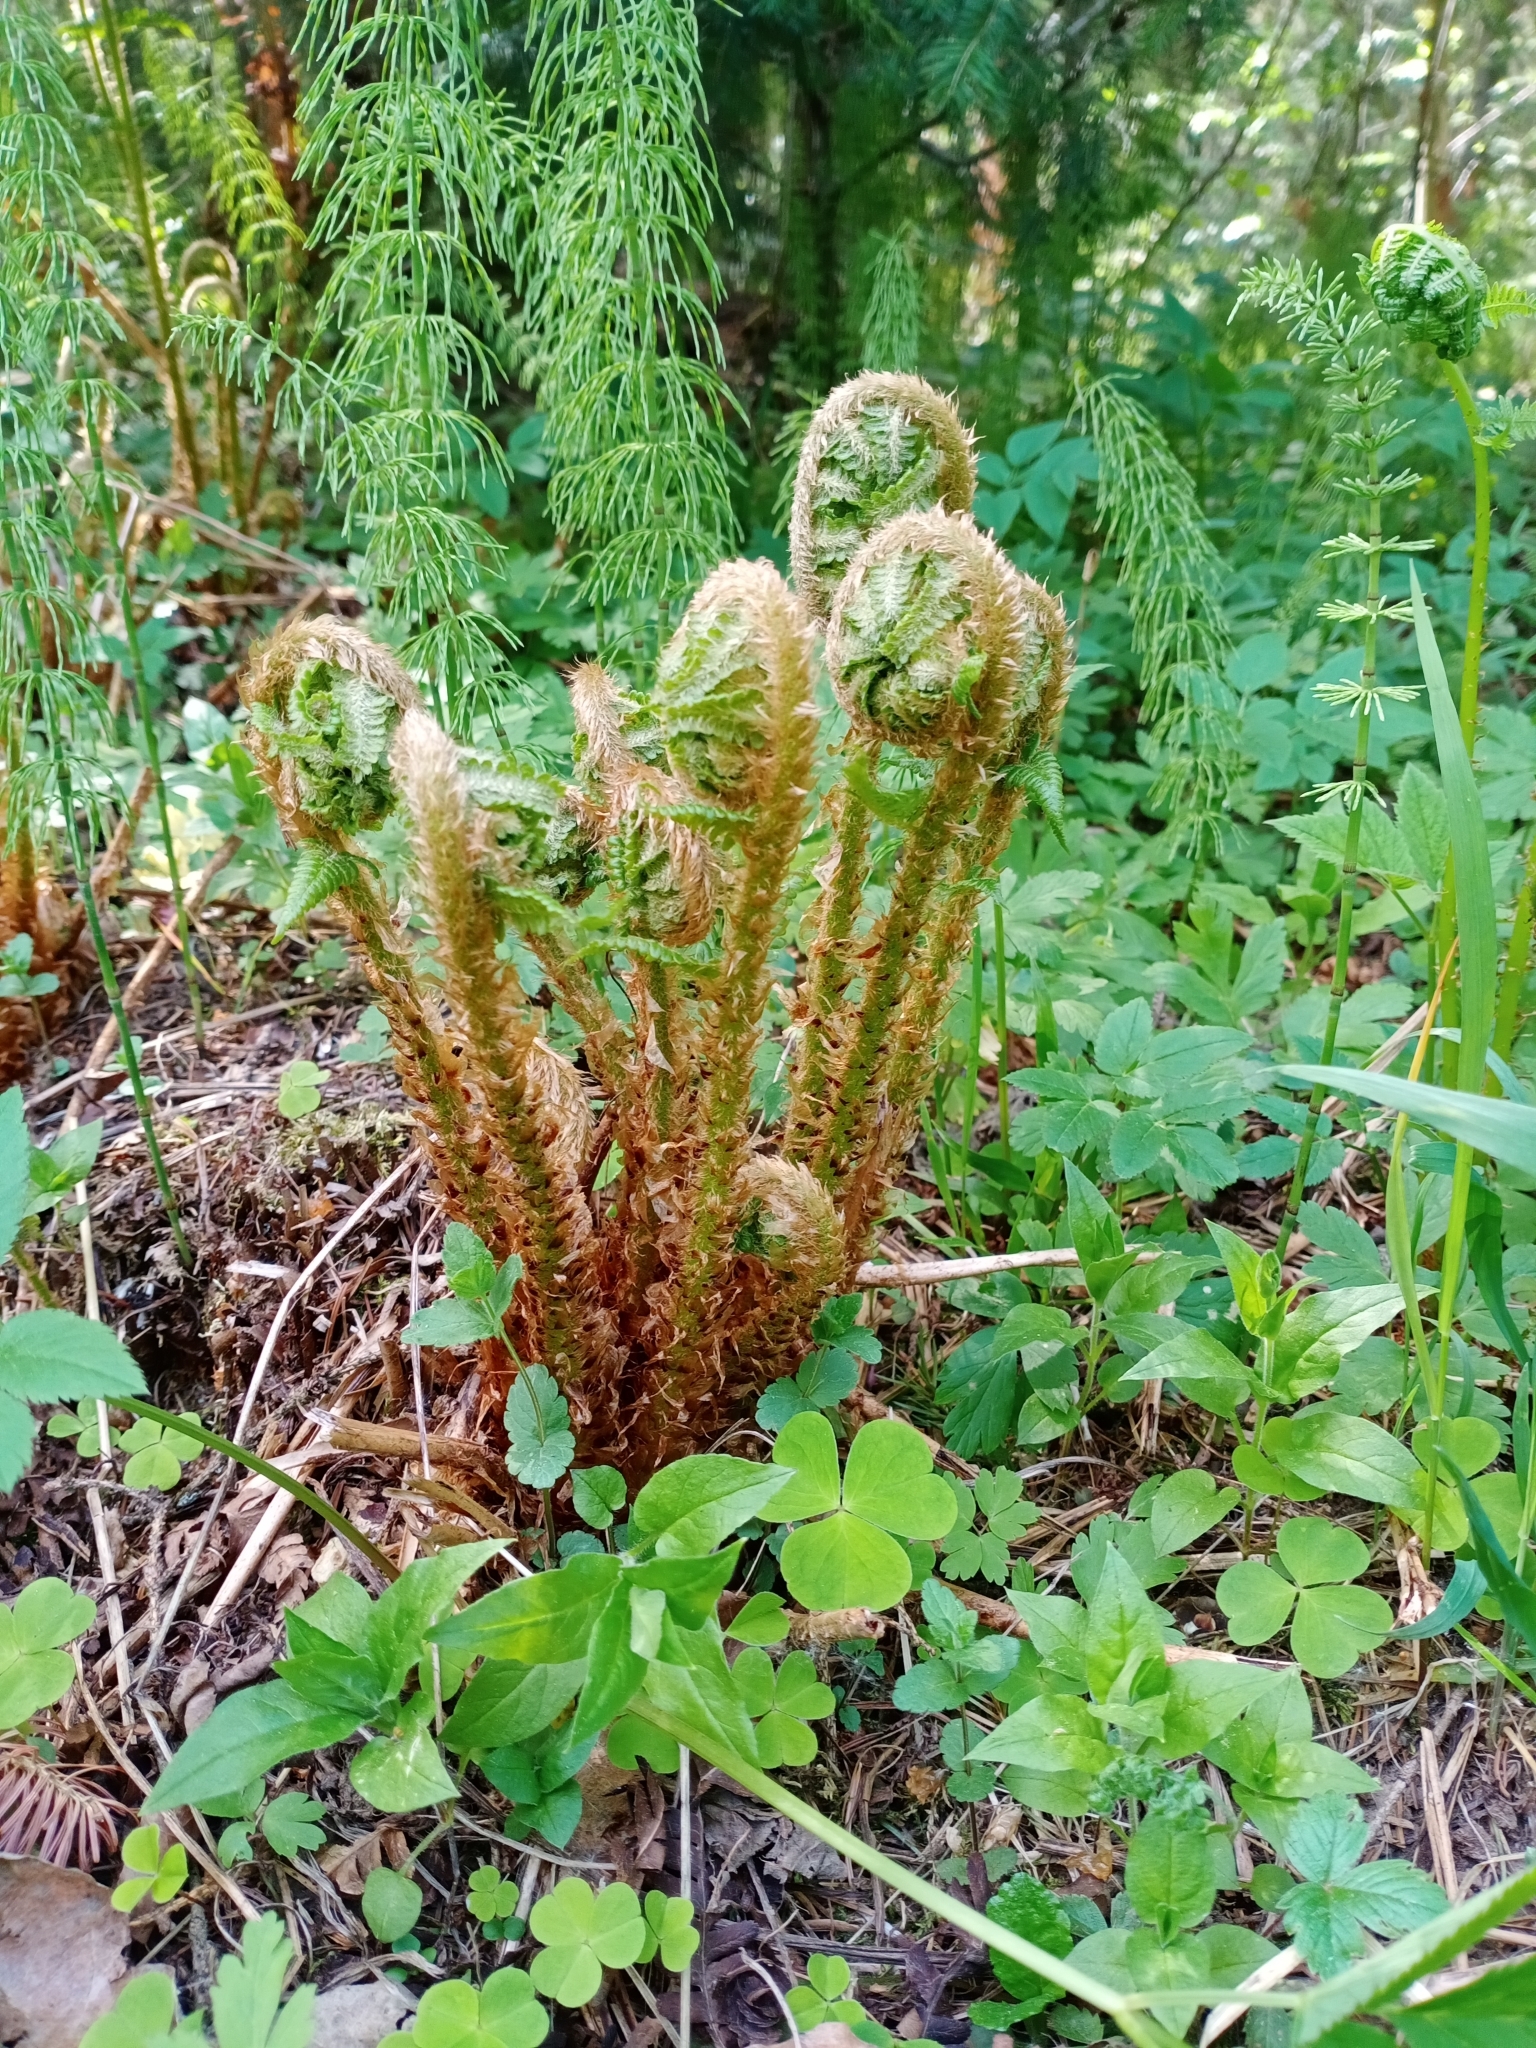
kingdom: Plantae
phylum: Tracheophyta
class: Polypodiopsida
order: Polypodiales
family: Dryopteridaceae
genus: Dryopteris
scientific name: Dryopteris filix-mas
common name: Male fern
